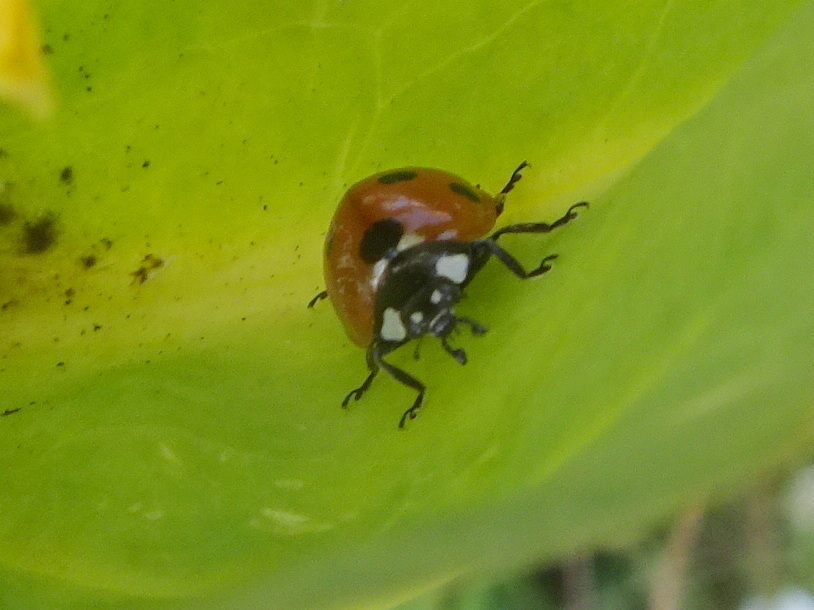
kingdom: Animalia
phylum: Arthropoda
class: Insecta
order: Coleoptera
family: Coccinellidae
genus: Coccinella
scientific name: Coccinella septempunctata
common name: Sevenspotted lady beetle
